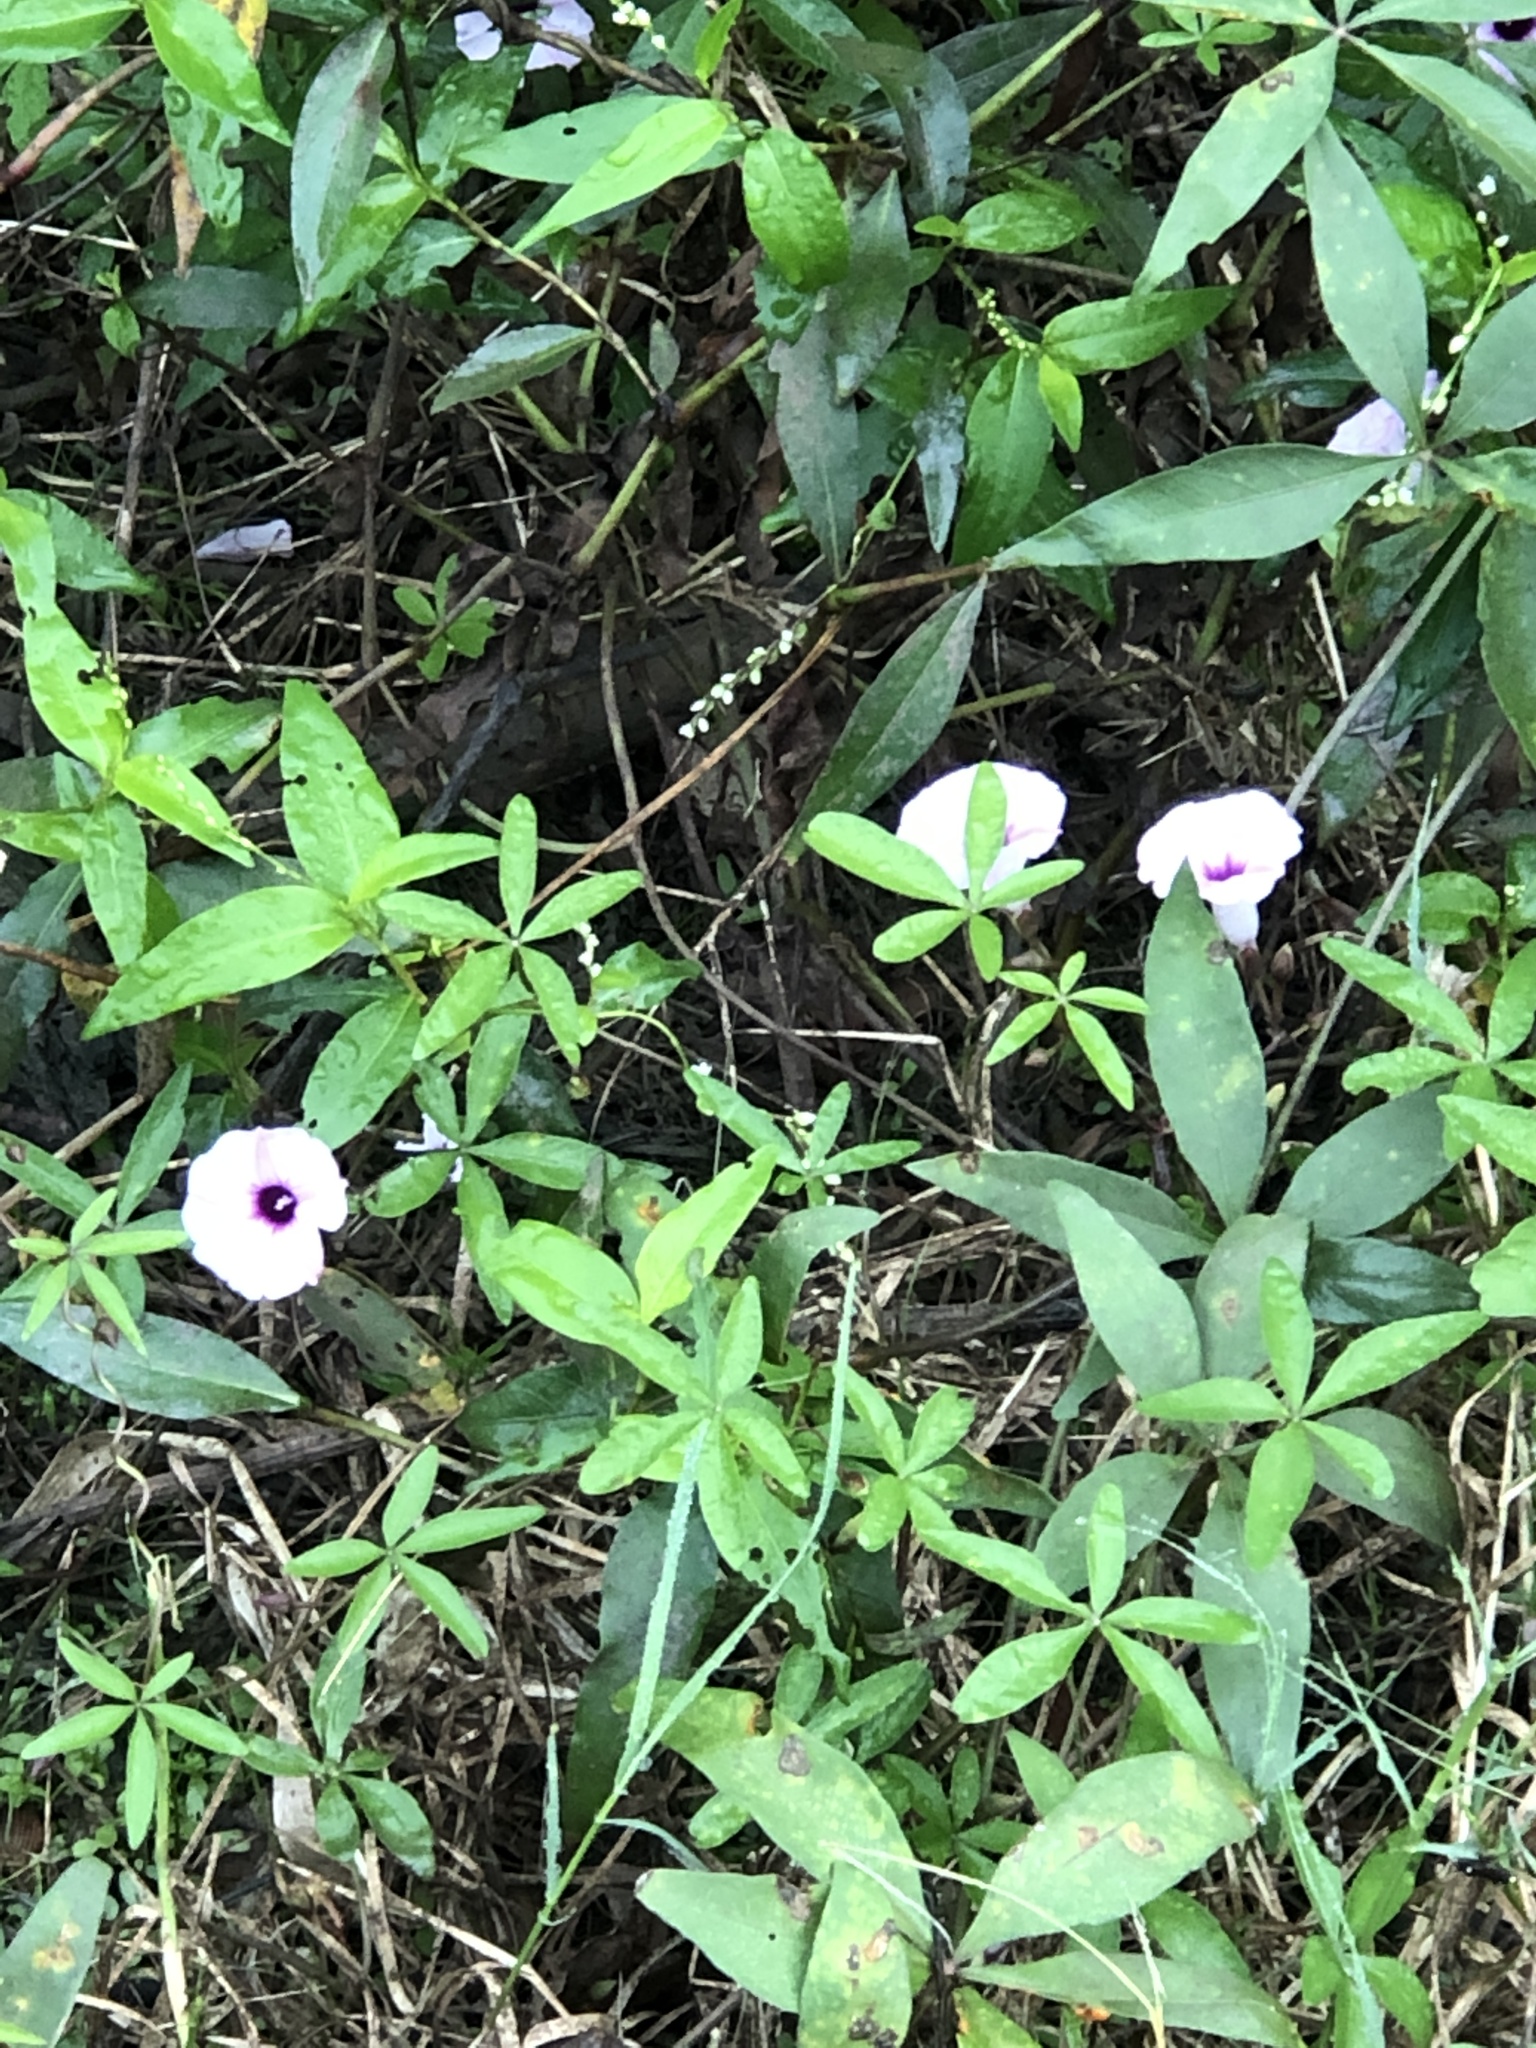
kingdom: Plantae
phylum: Tracheophyta
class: Magnoliopsida
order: Solanales
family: Convolvulaceae
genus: Ipomoea
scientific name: Ipomoea heptaphylla
